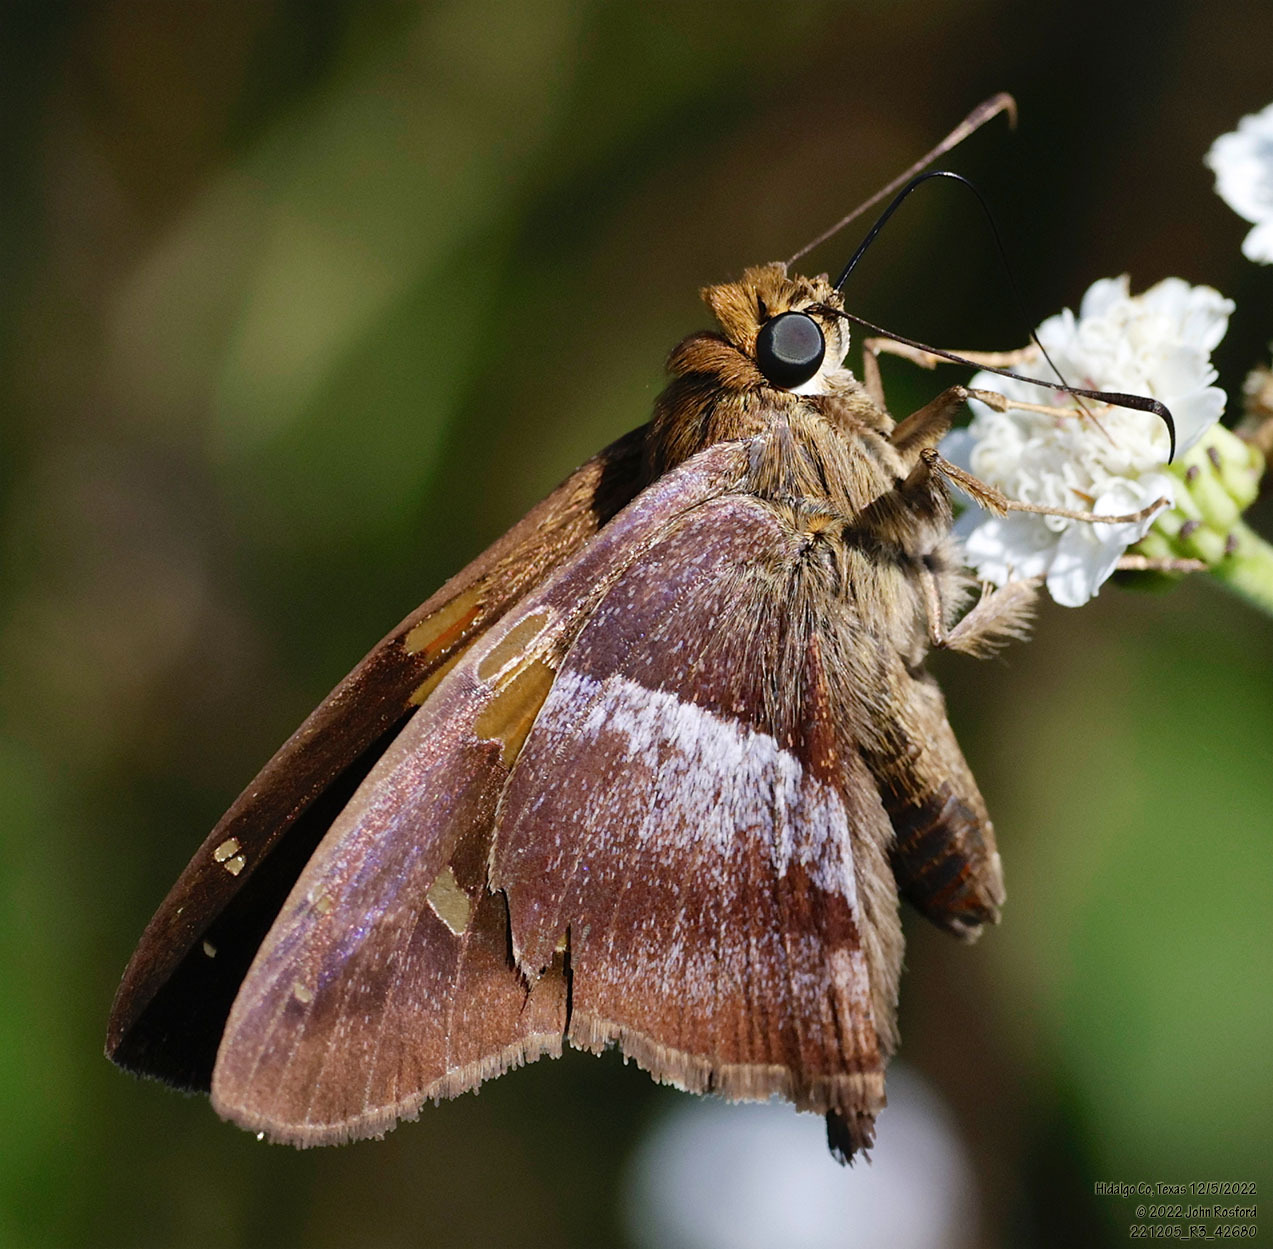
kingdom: Animalia
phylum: Arthropoda
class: Insecta
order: Lepidoptera
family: Hesperiidae
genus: Aguna
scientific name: Aguna asander
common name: Gold-spotted aguna
